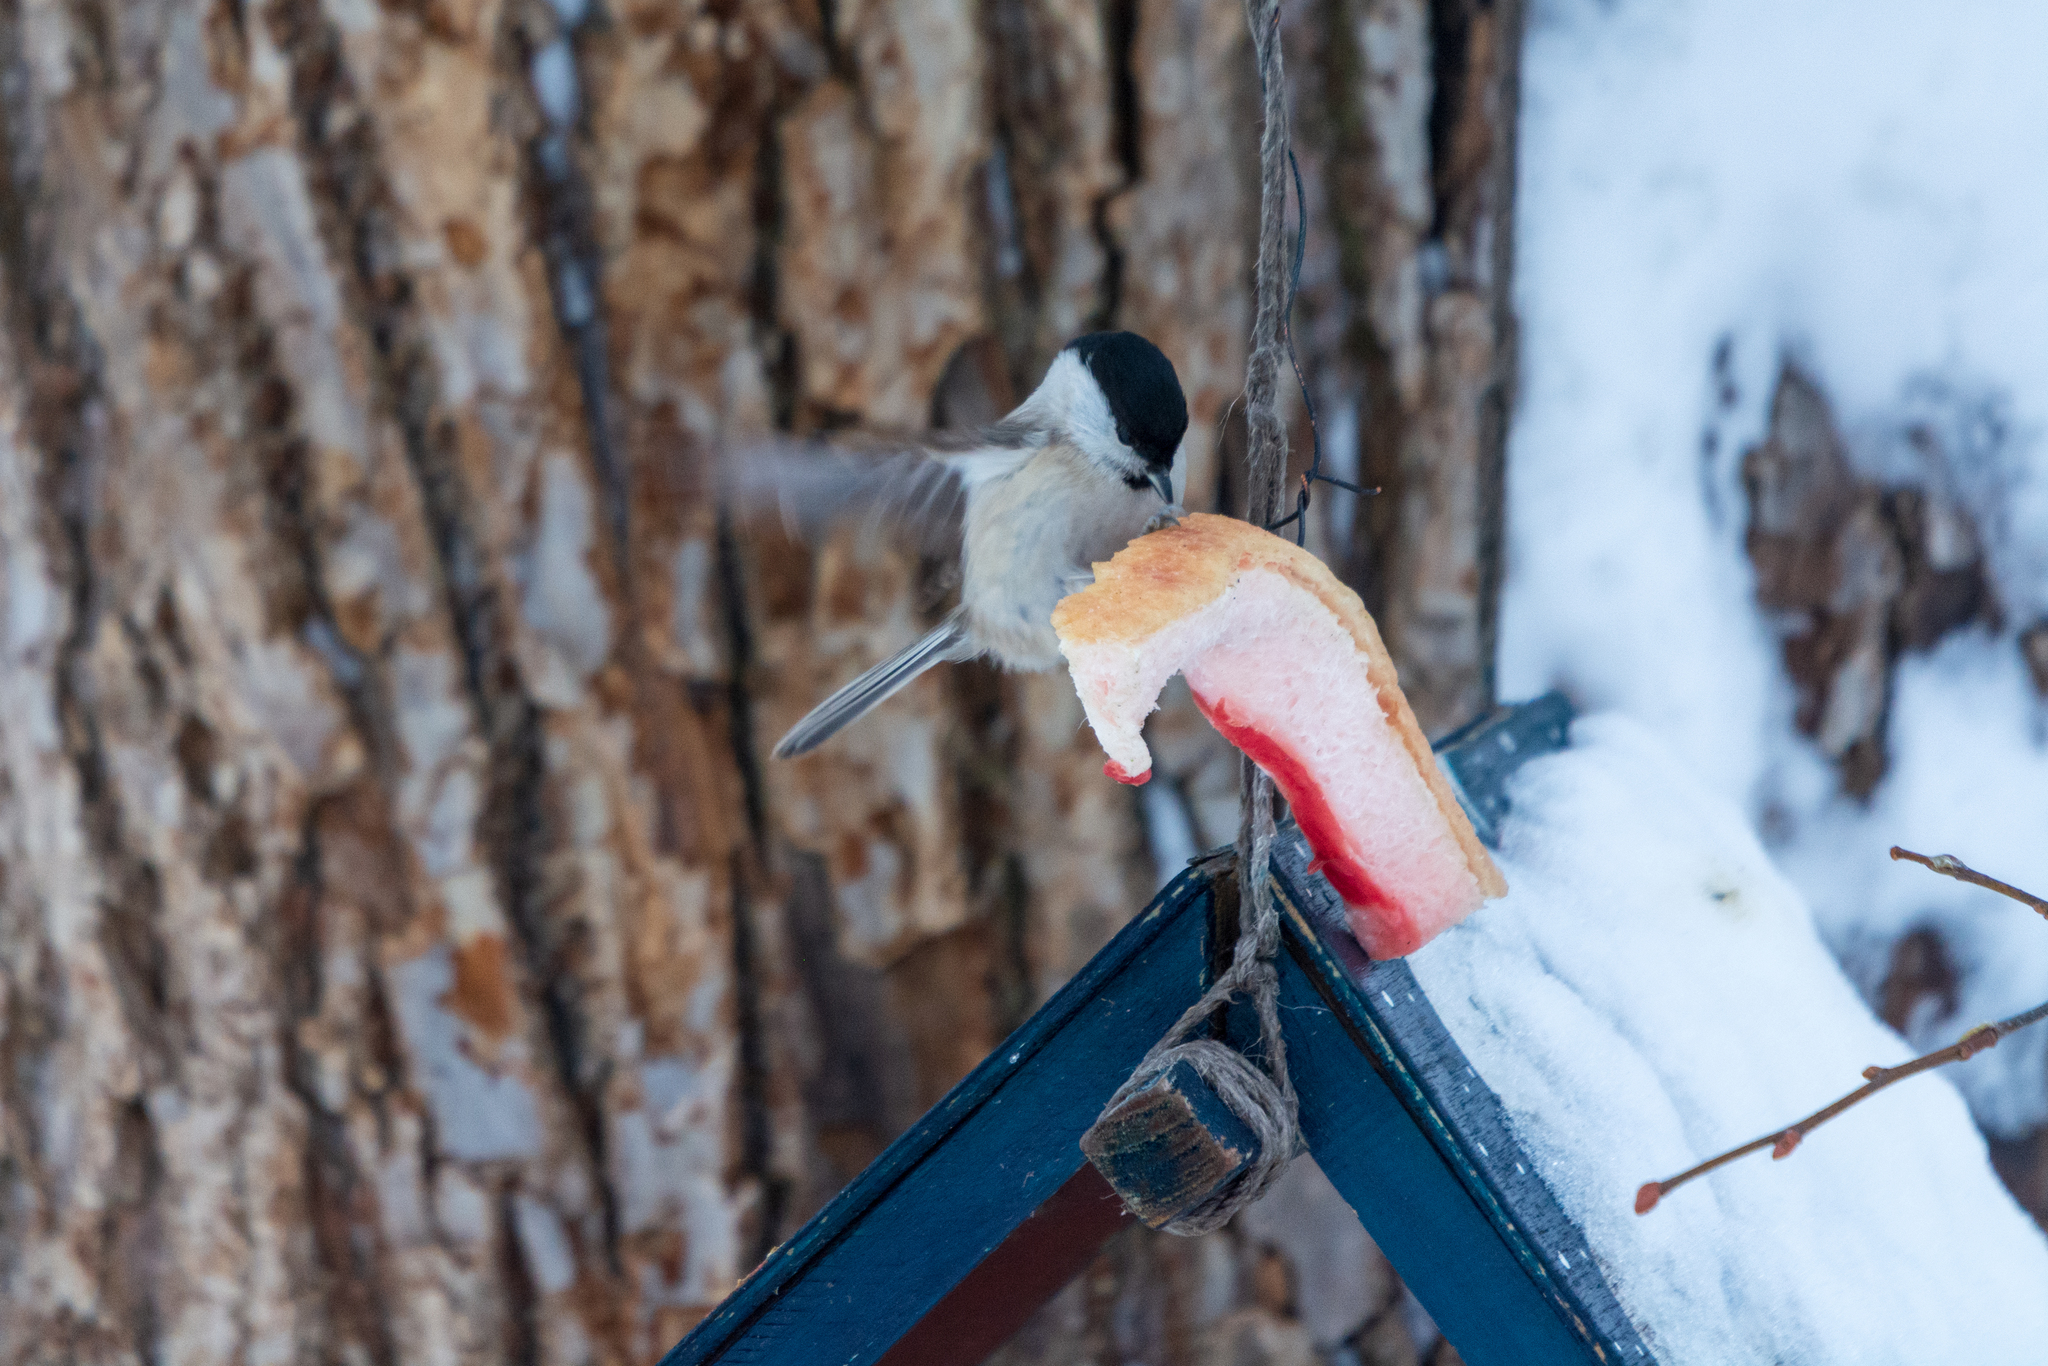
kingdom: Animalia
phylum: Chordata
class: Aves
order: Passeriformes
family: Paridae
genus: Poecile
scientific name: Poecile palustris
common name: Marsh tit
